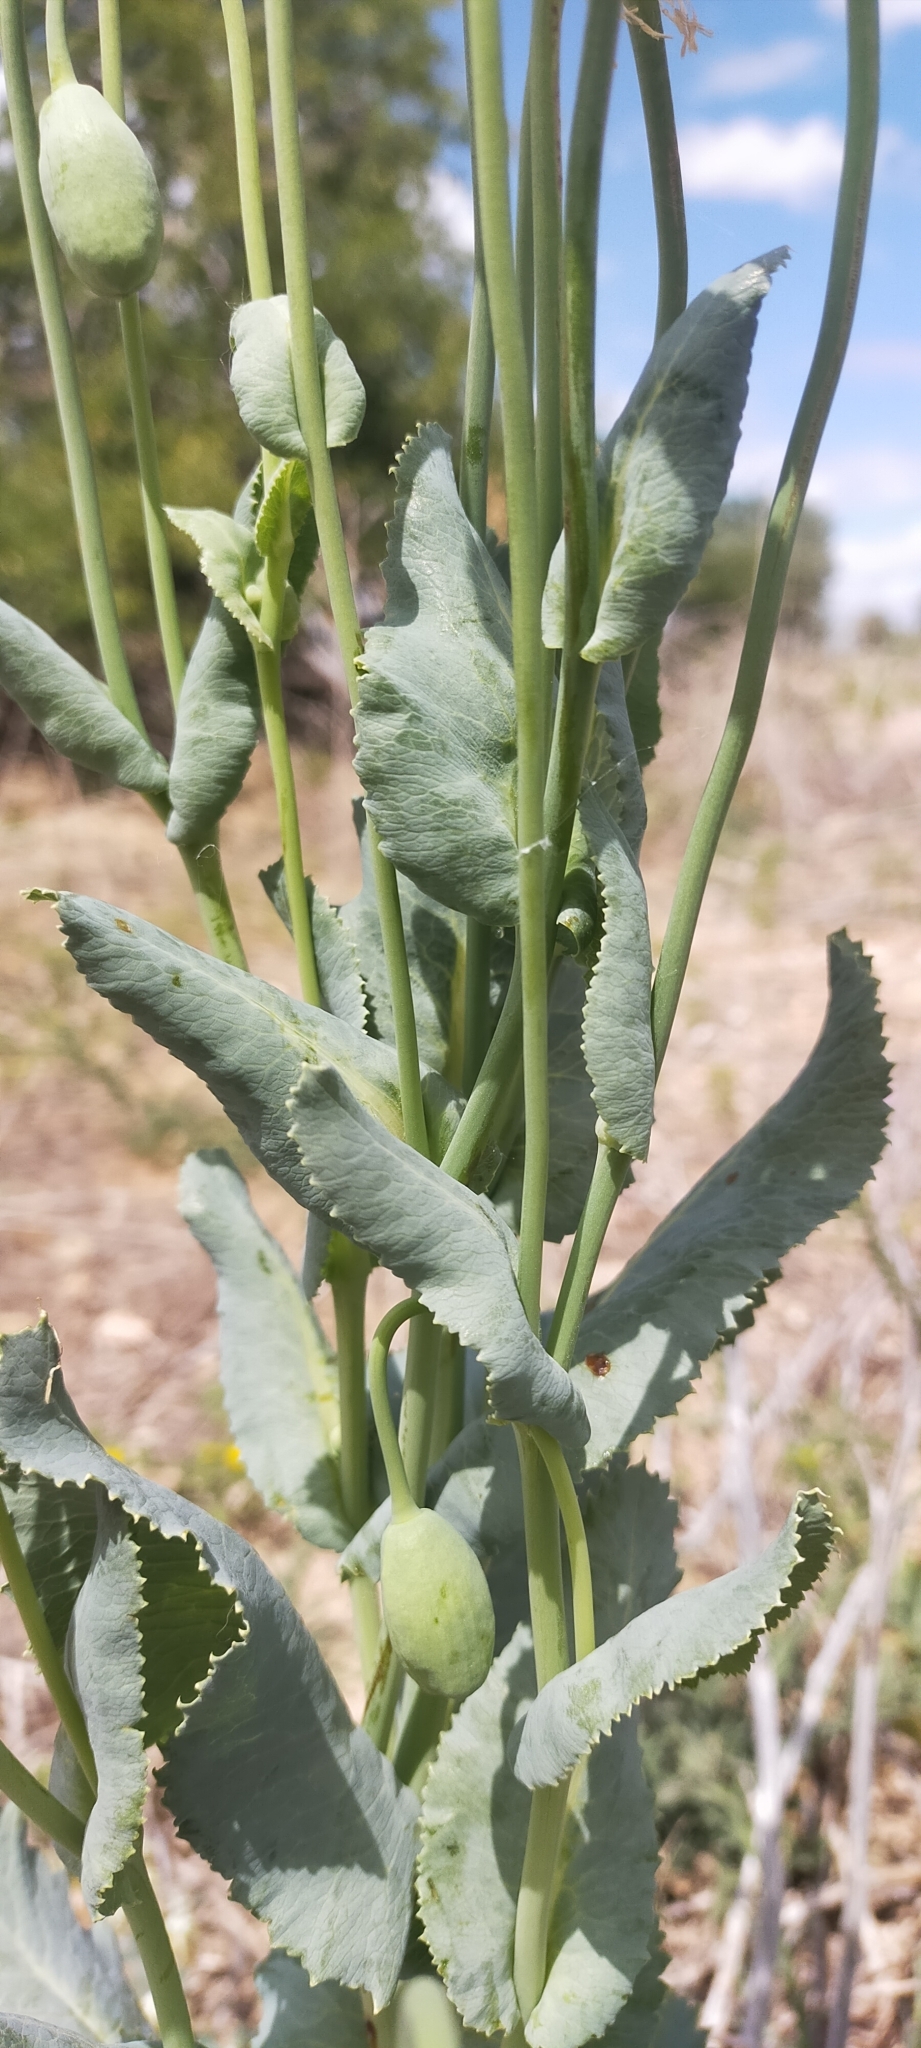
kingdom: Plantae
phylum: Tracheophyta
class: Magnoliopsida
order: Ranunculales
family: Papaveraceae
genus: Papaver
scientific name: Papaver somniferum
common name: Opium poppy
